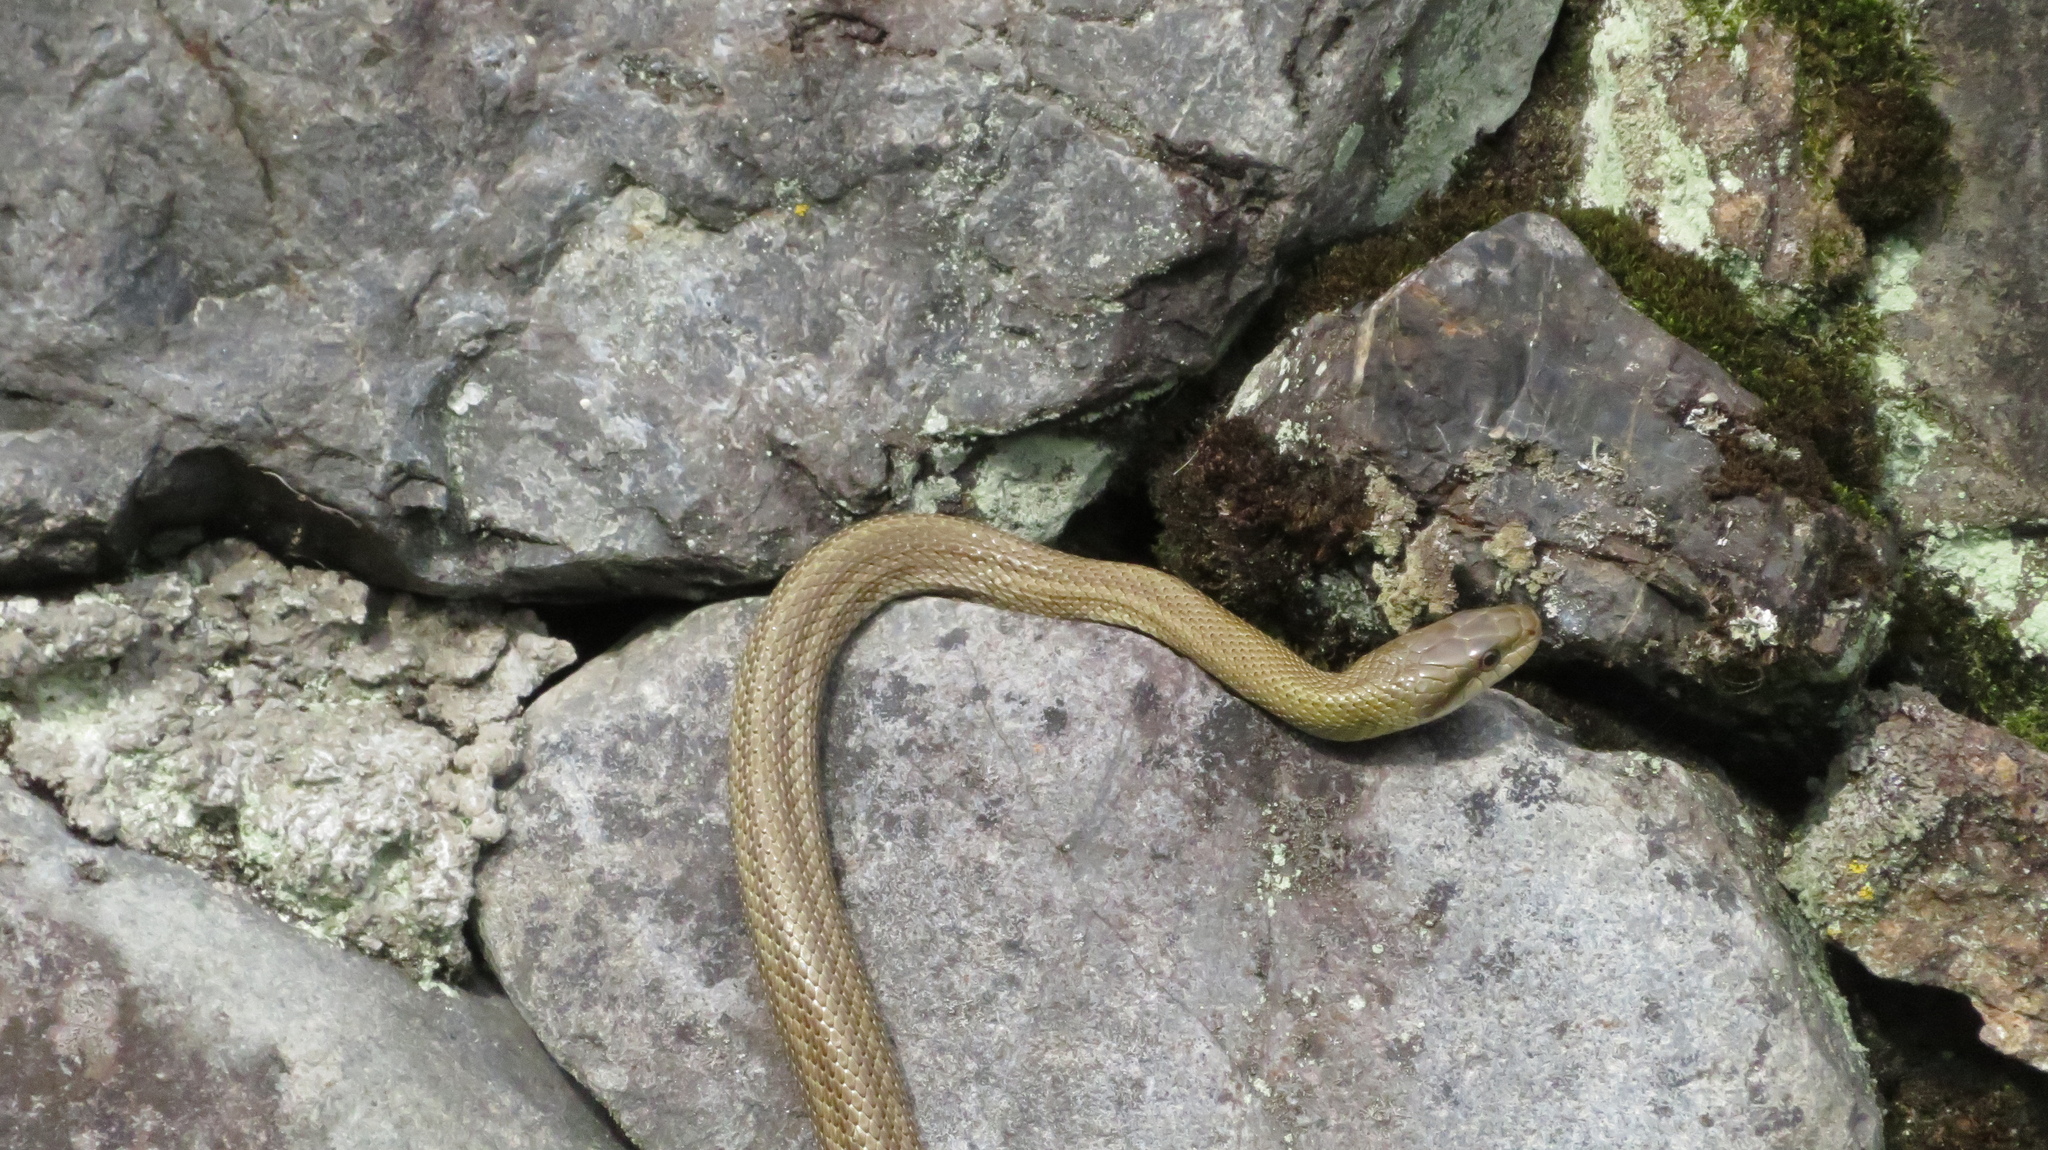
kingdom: Animalia
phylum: Chordata
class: Squamata
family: Colubridae
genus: Elaphe
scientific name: Elaphe climacophora
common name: Japanese ratsnake
